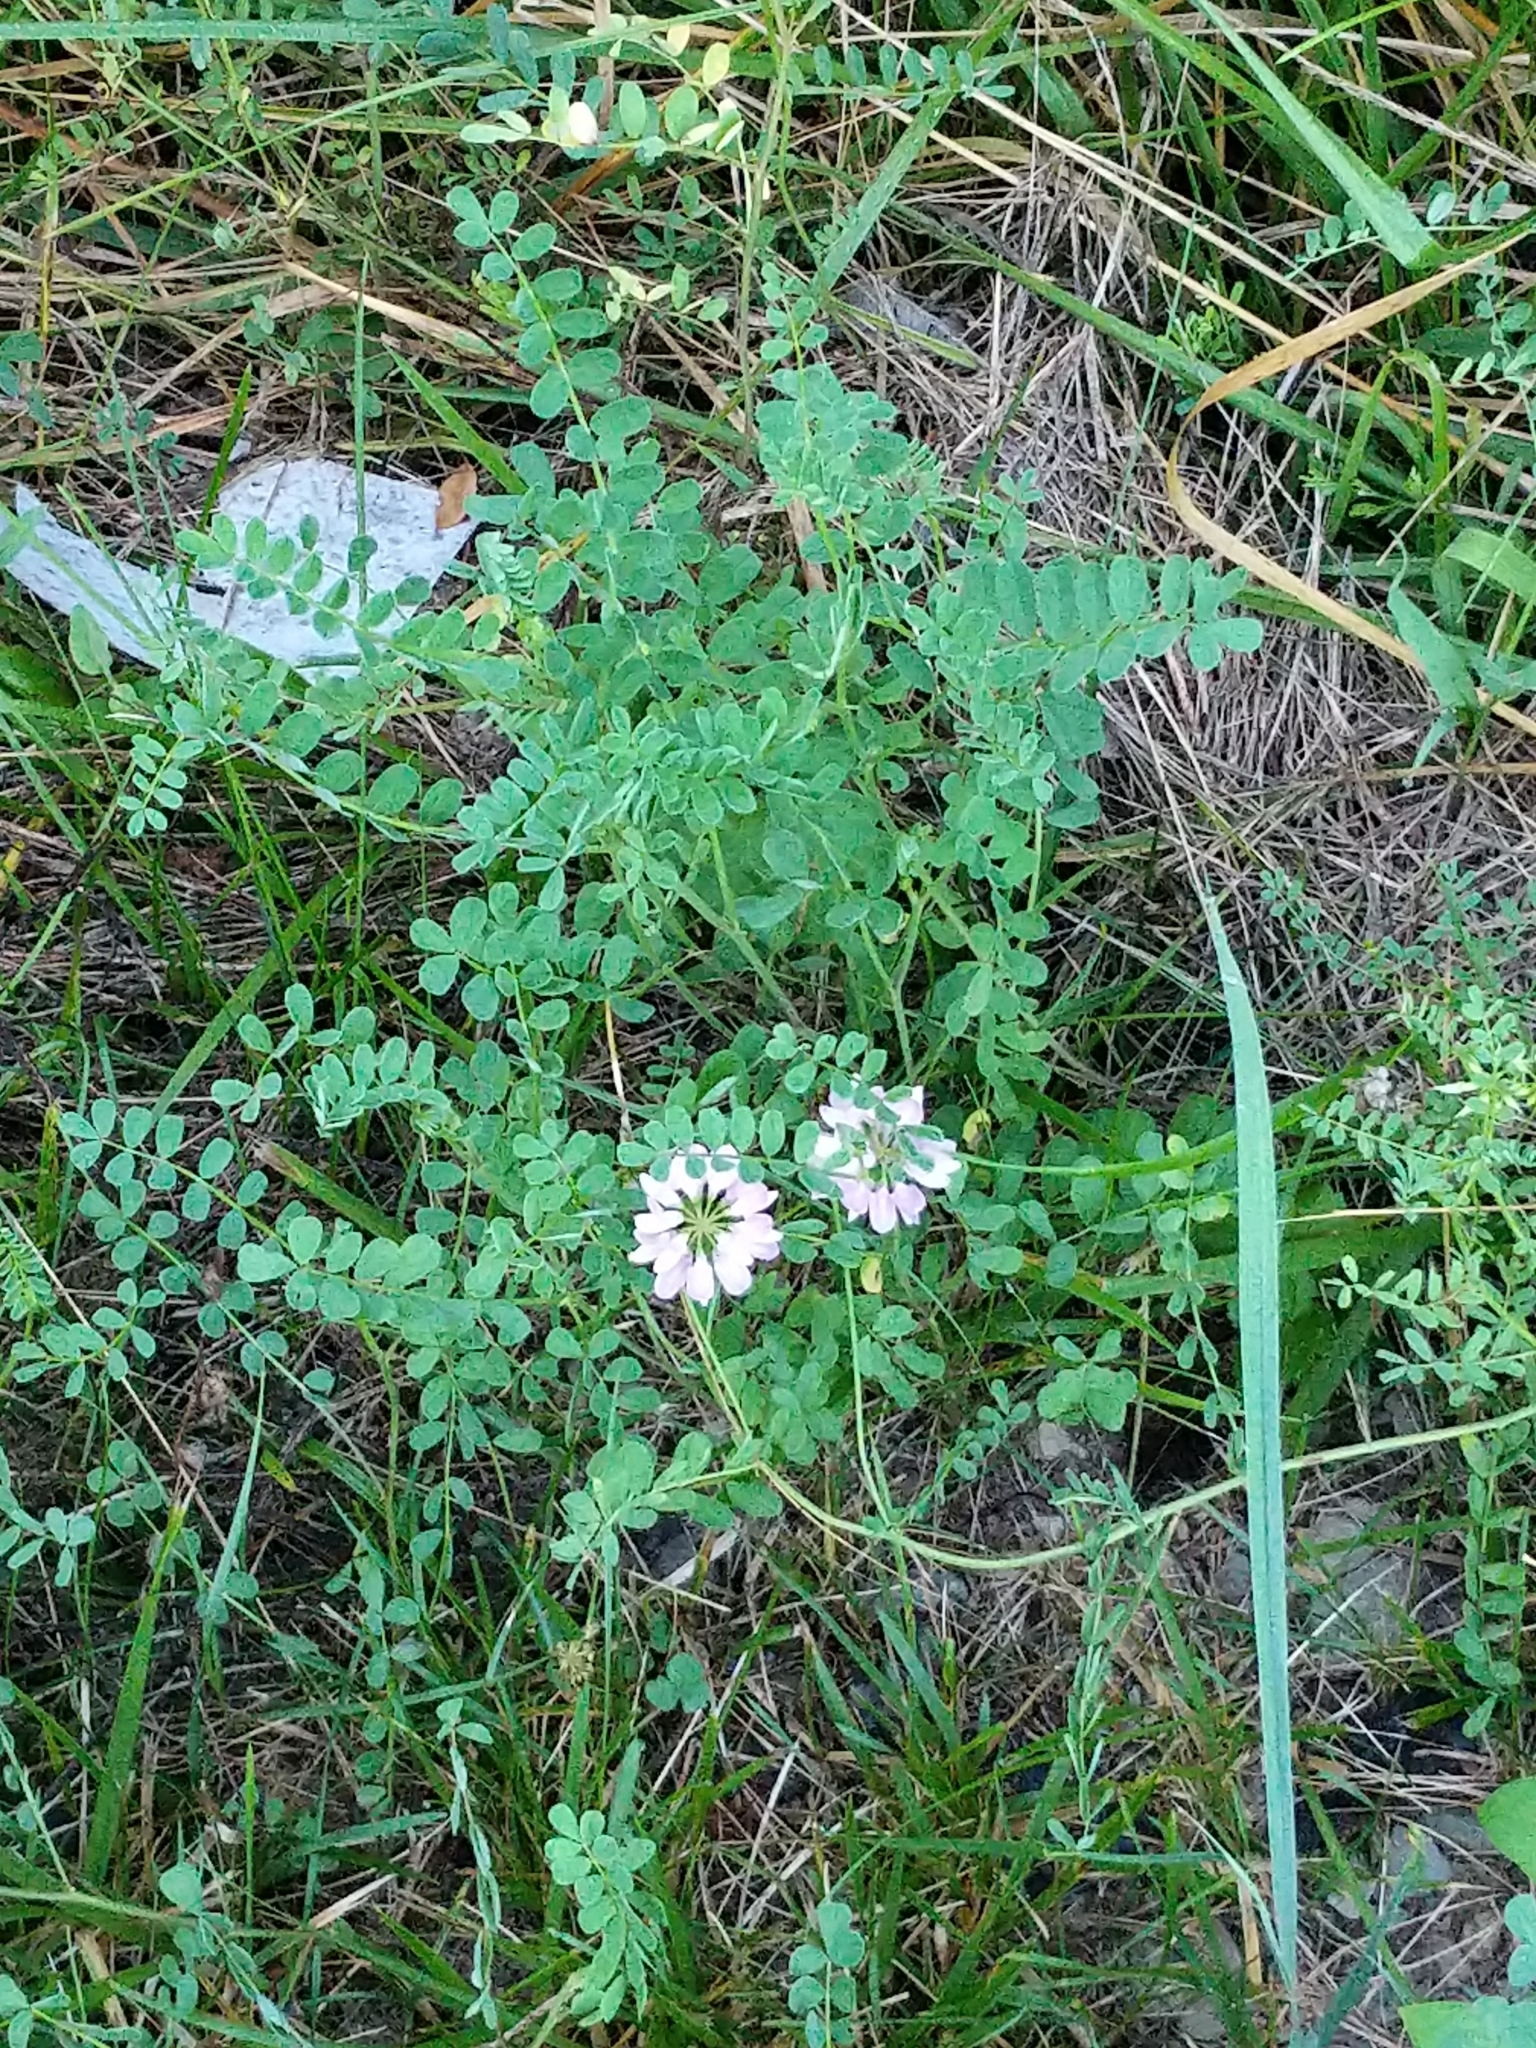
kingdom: Plantae
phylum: Tracheophyta
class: Magnoliopsida
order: Fabales
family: Fabaceae
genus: Coronilla
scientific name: Coronilla varia
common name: Crownvetch
